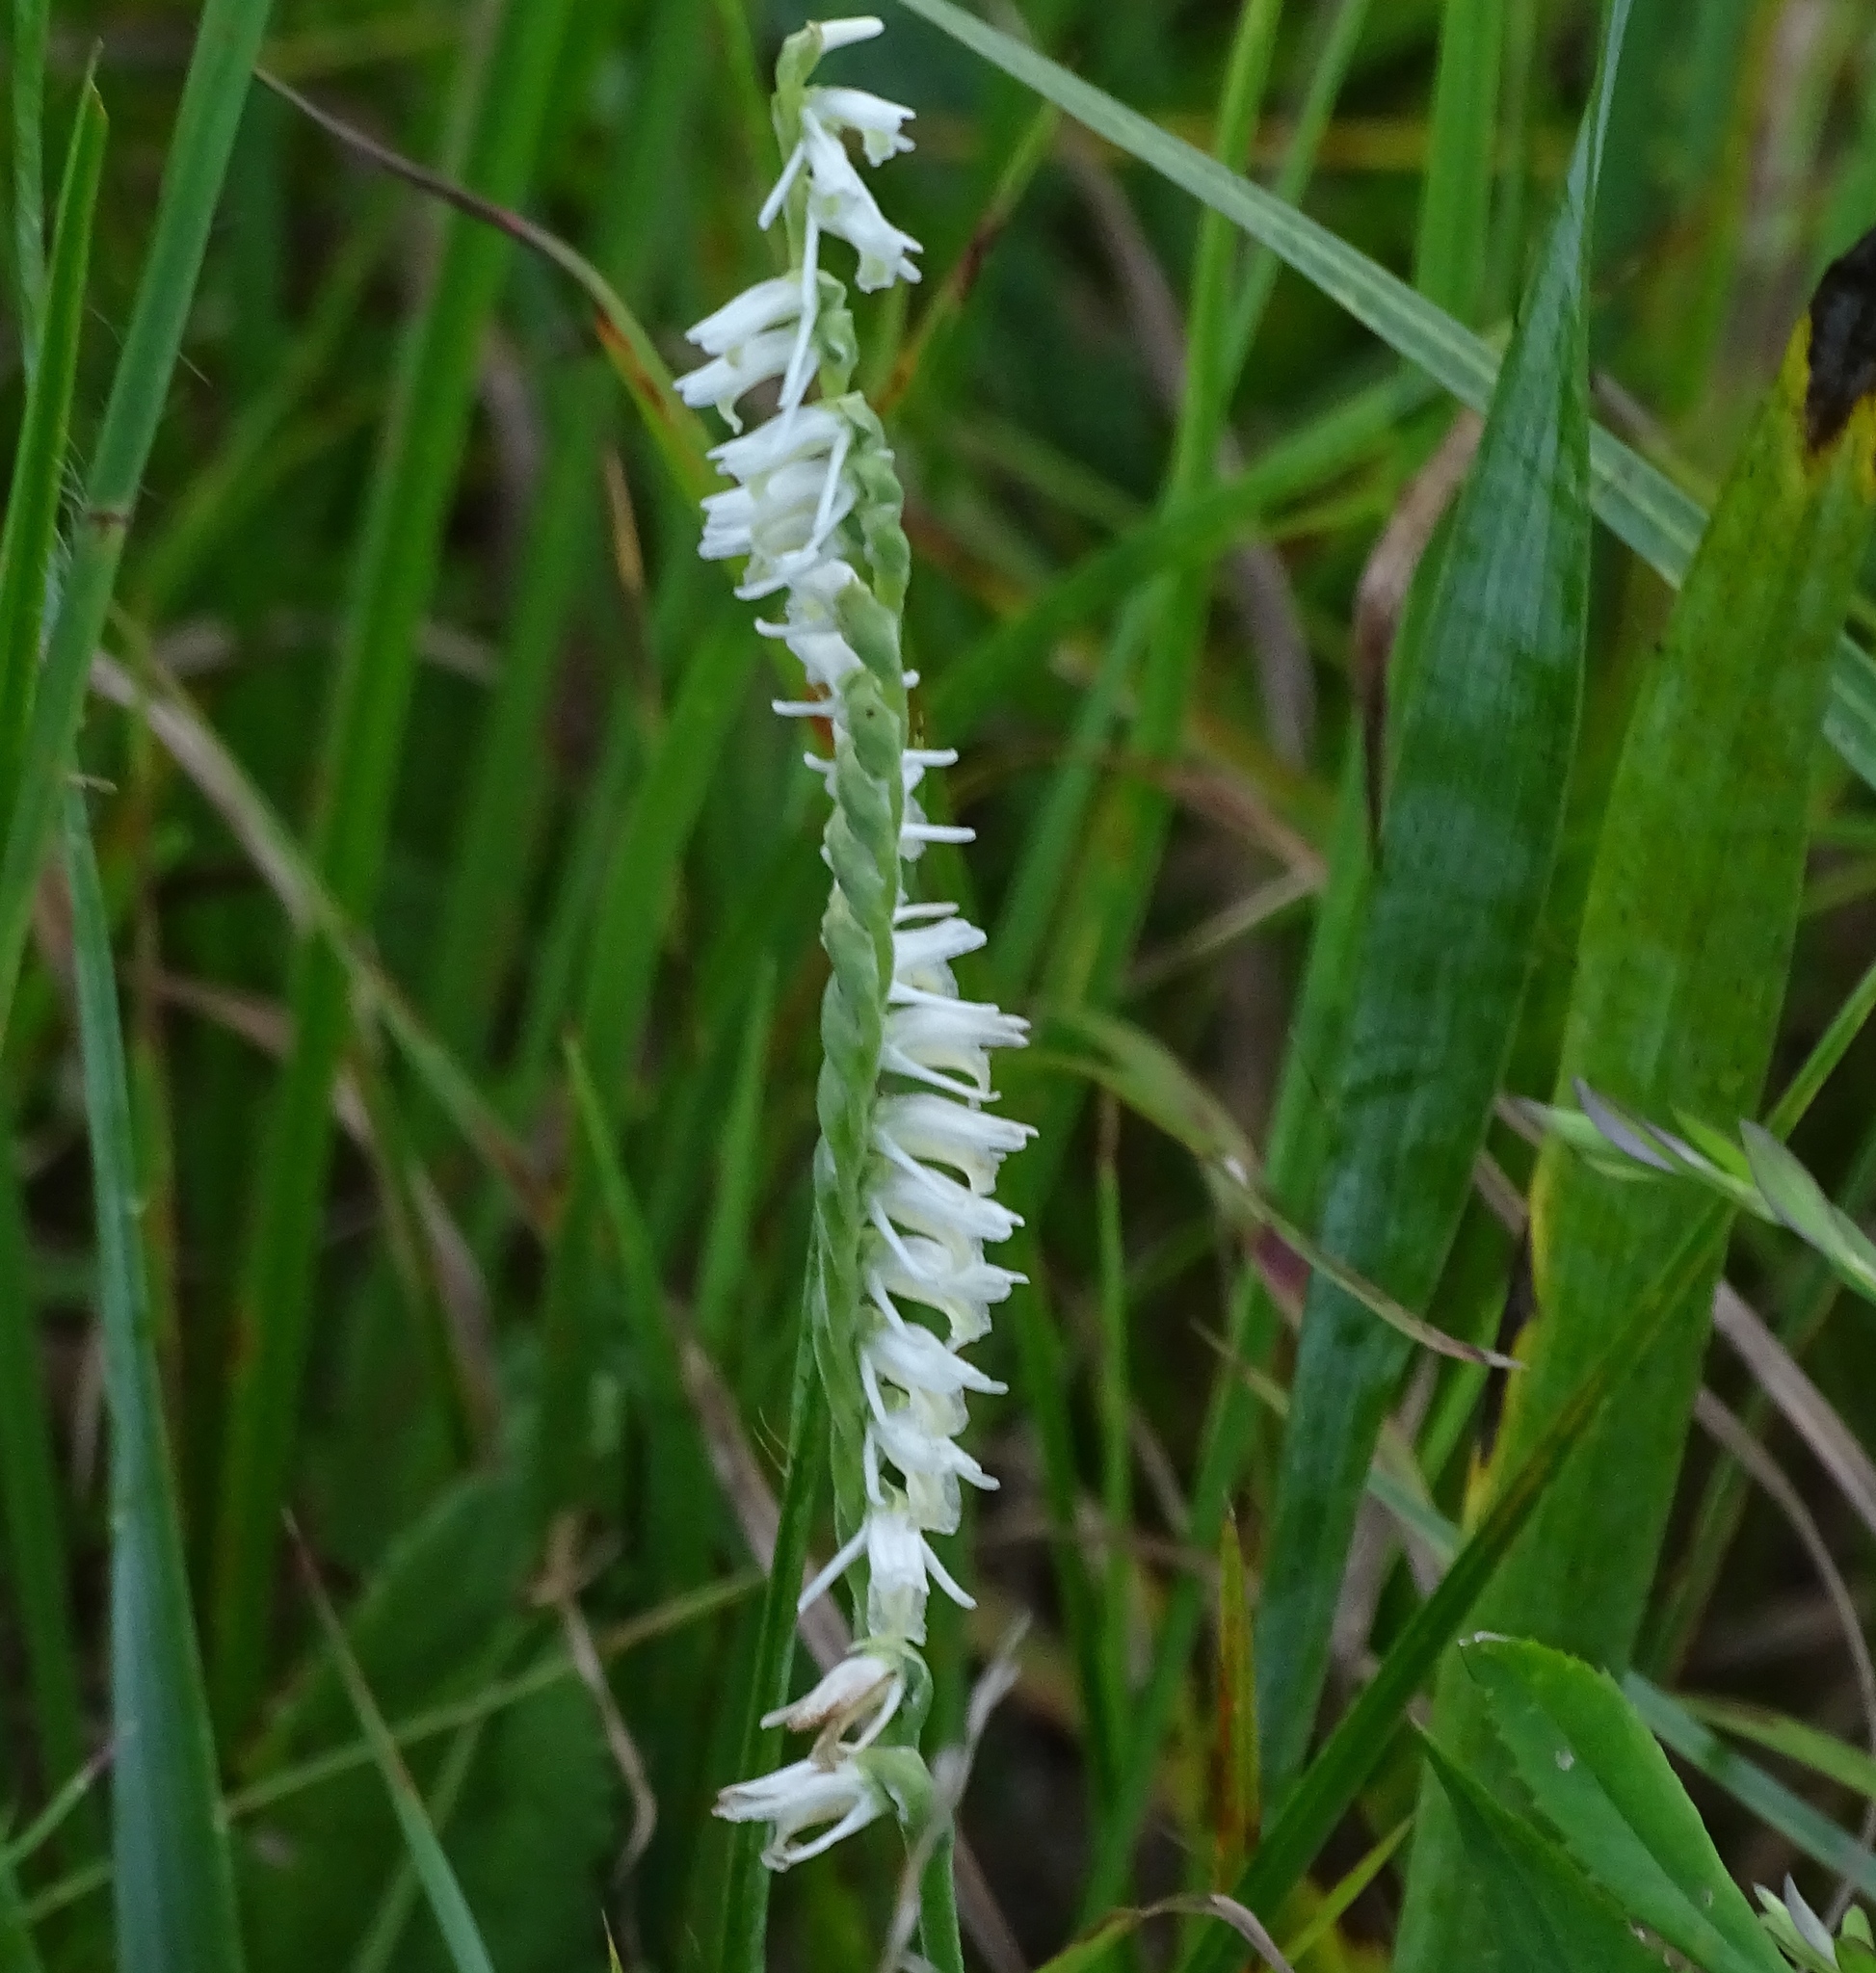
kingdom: Plantae
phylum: Tracheophyta
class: Liliopsida
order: Asparagales
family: Orchidaceae
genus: Spiranthes
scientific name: Spiranthes vernalis
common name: Spring ladies'-tresses
